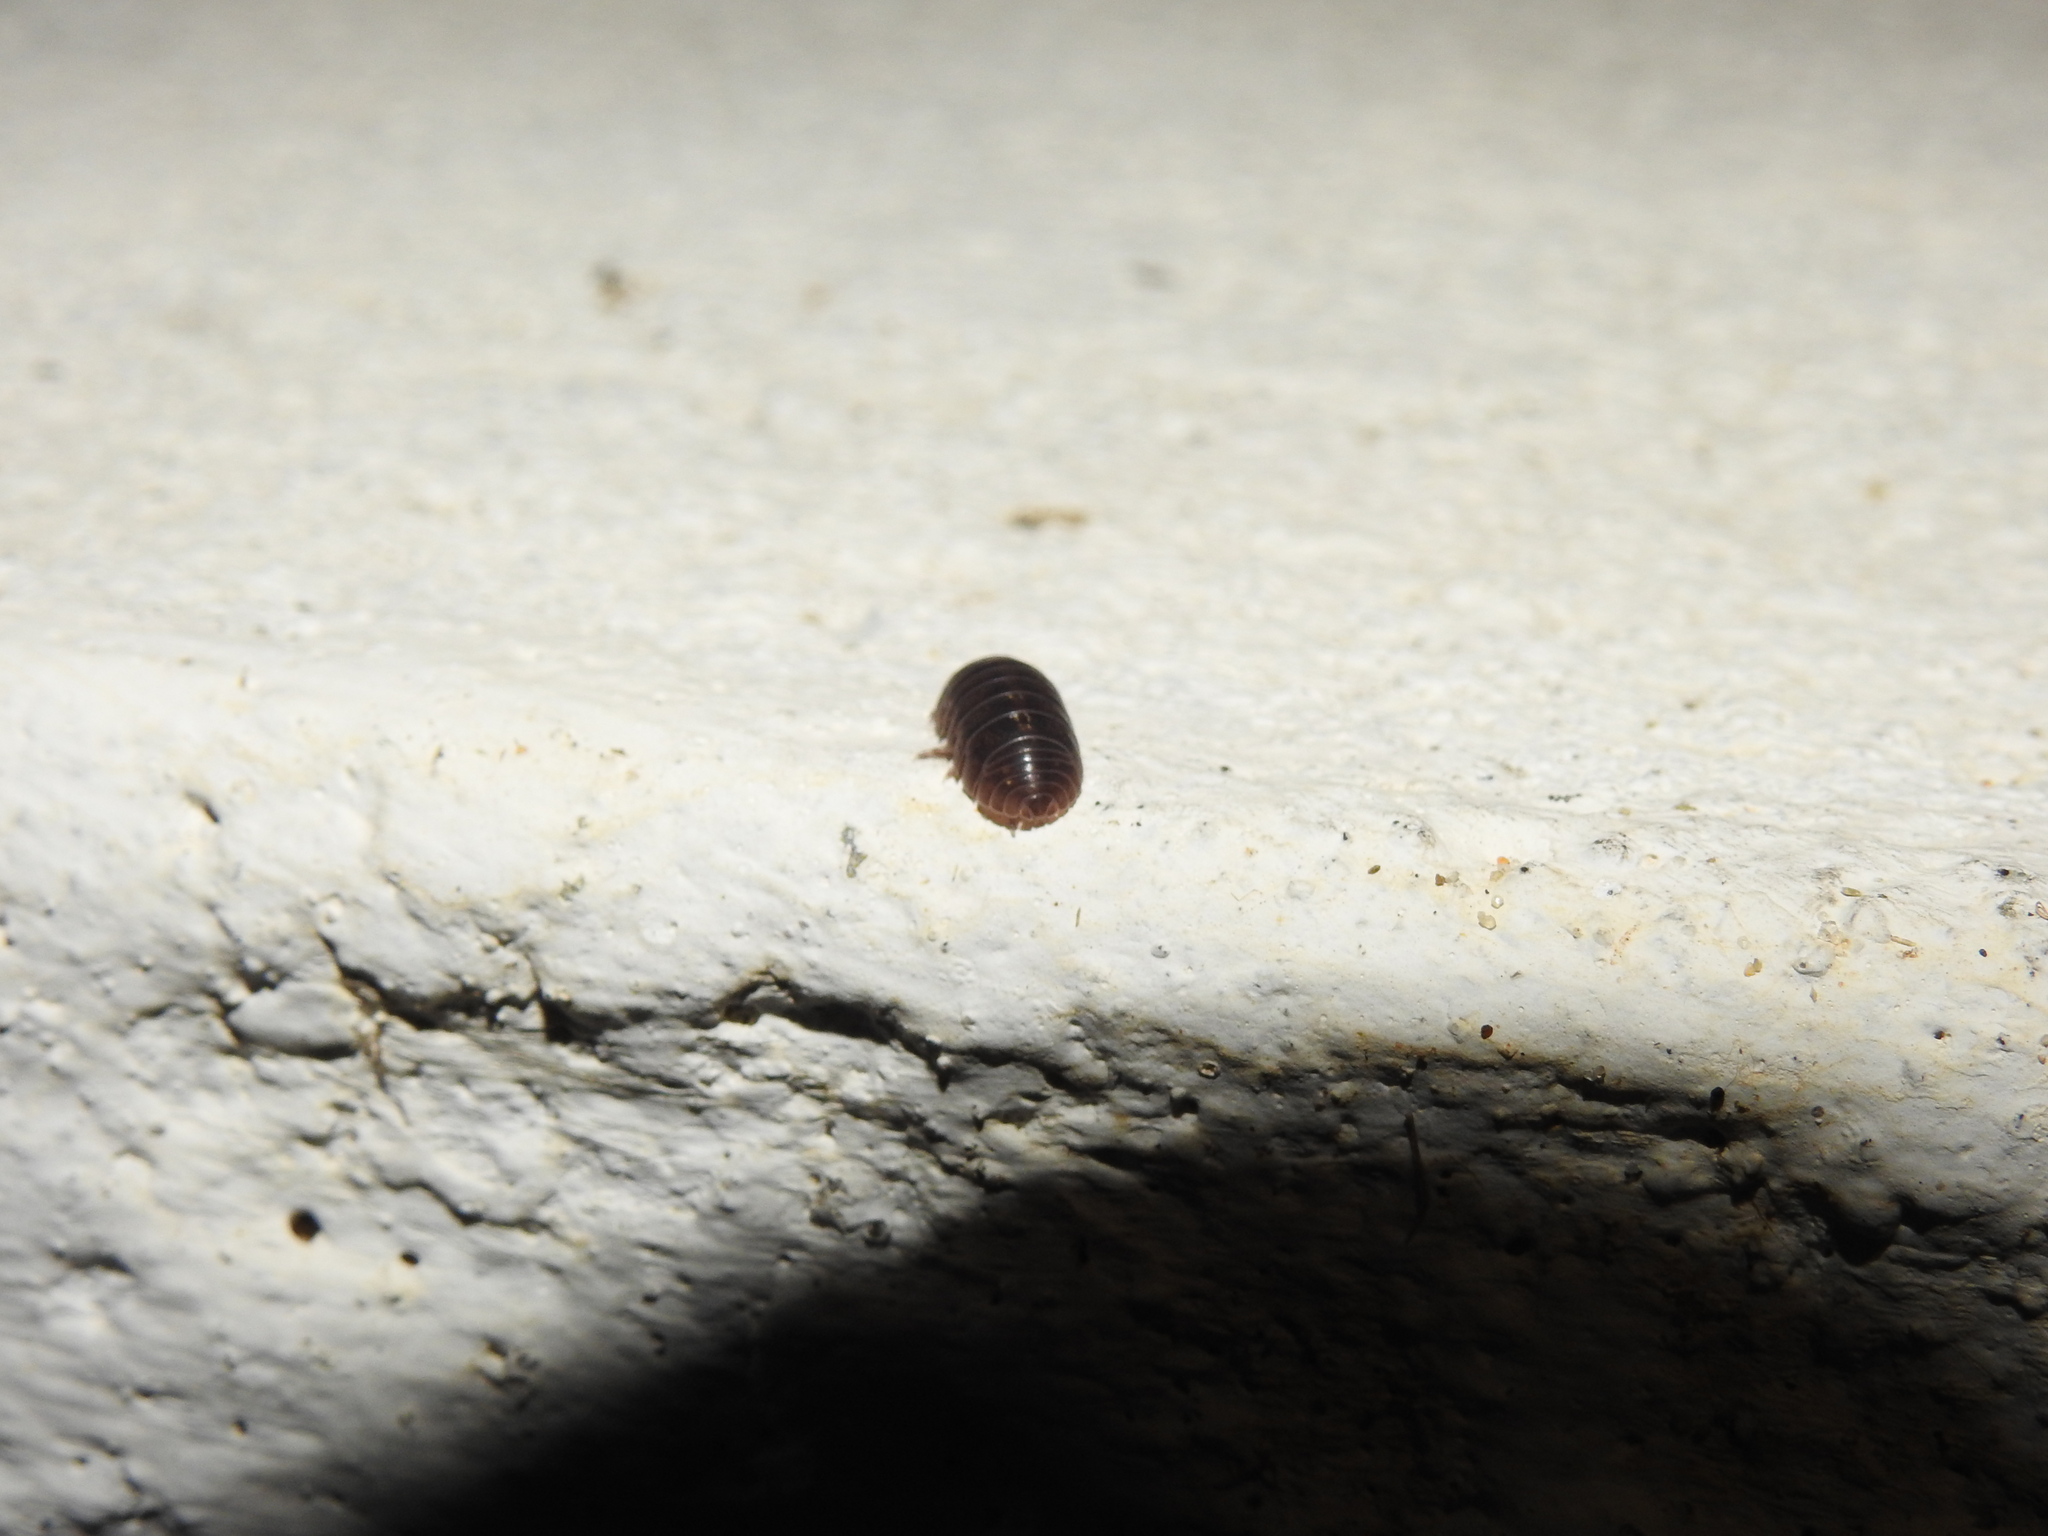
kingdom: Animalia
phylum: Arthropoda
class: Malacostraca
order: Isopoda
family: Armadillidiidae
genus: Armadillidium
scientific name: Armadillidium vulgare
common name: Common pill woodlouse
